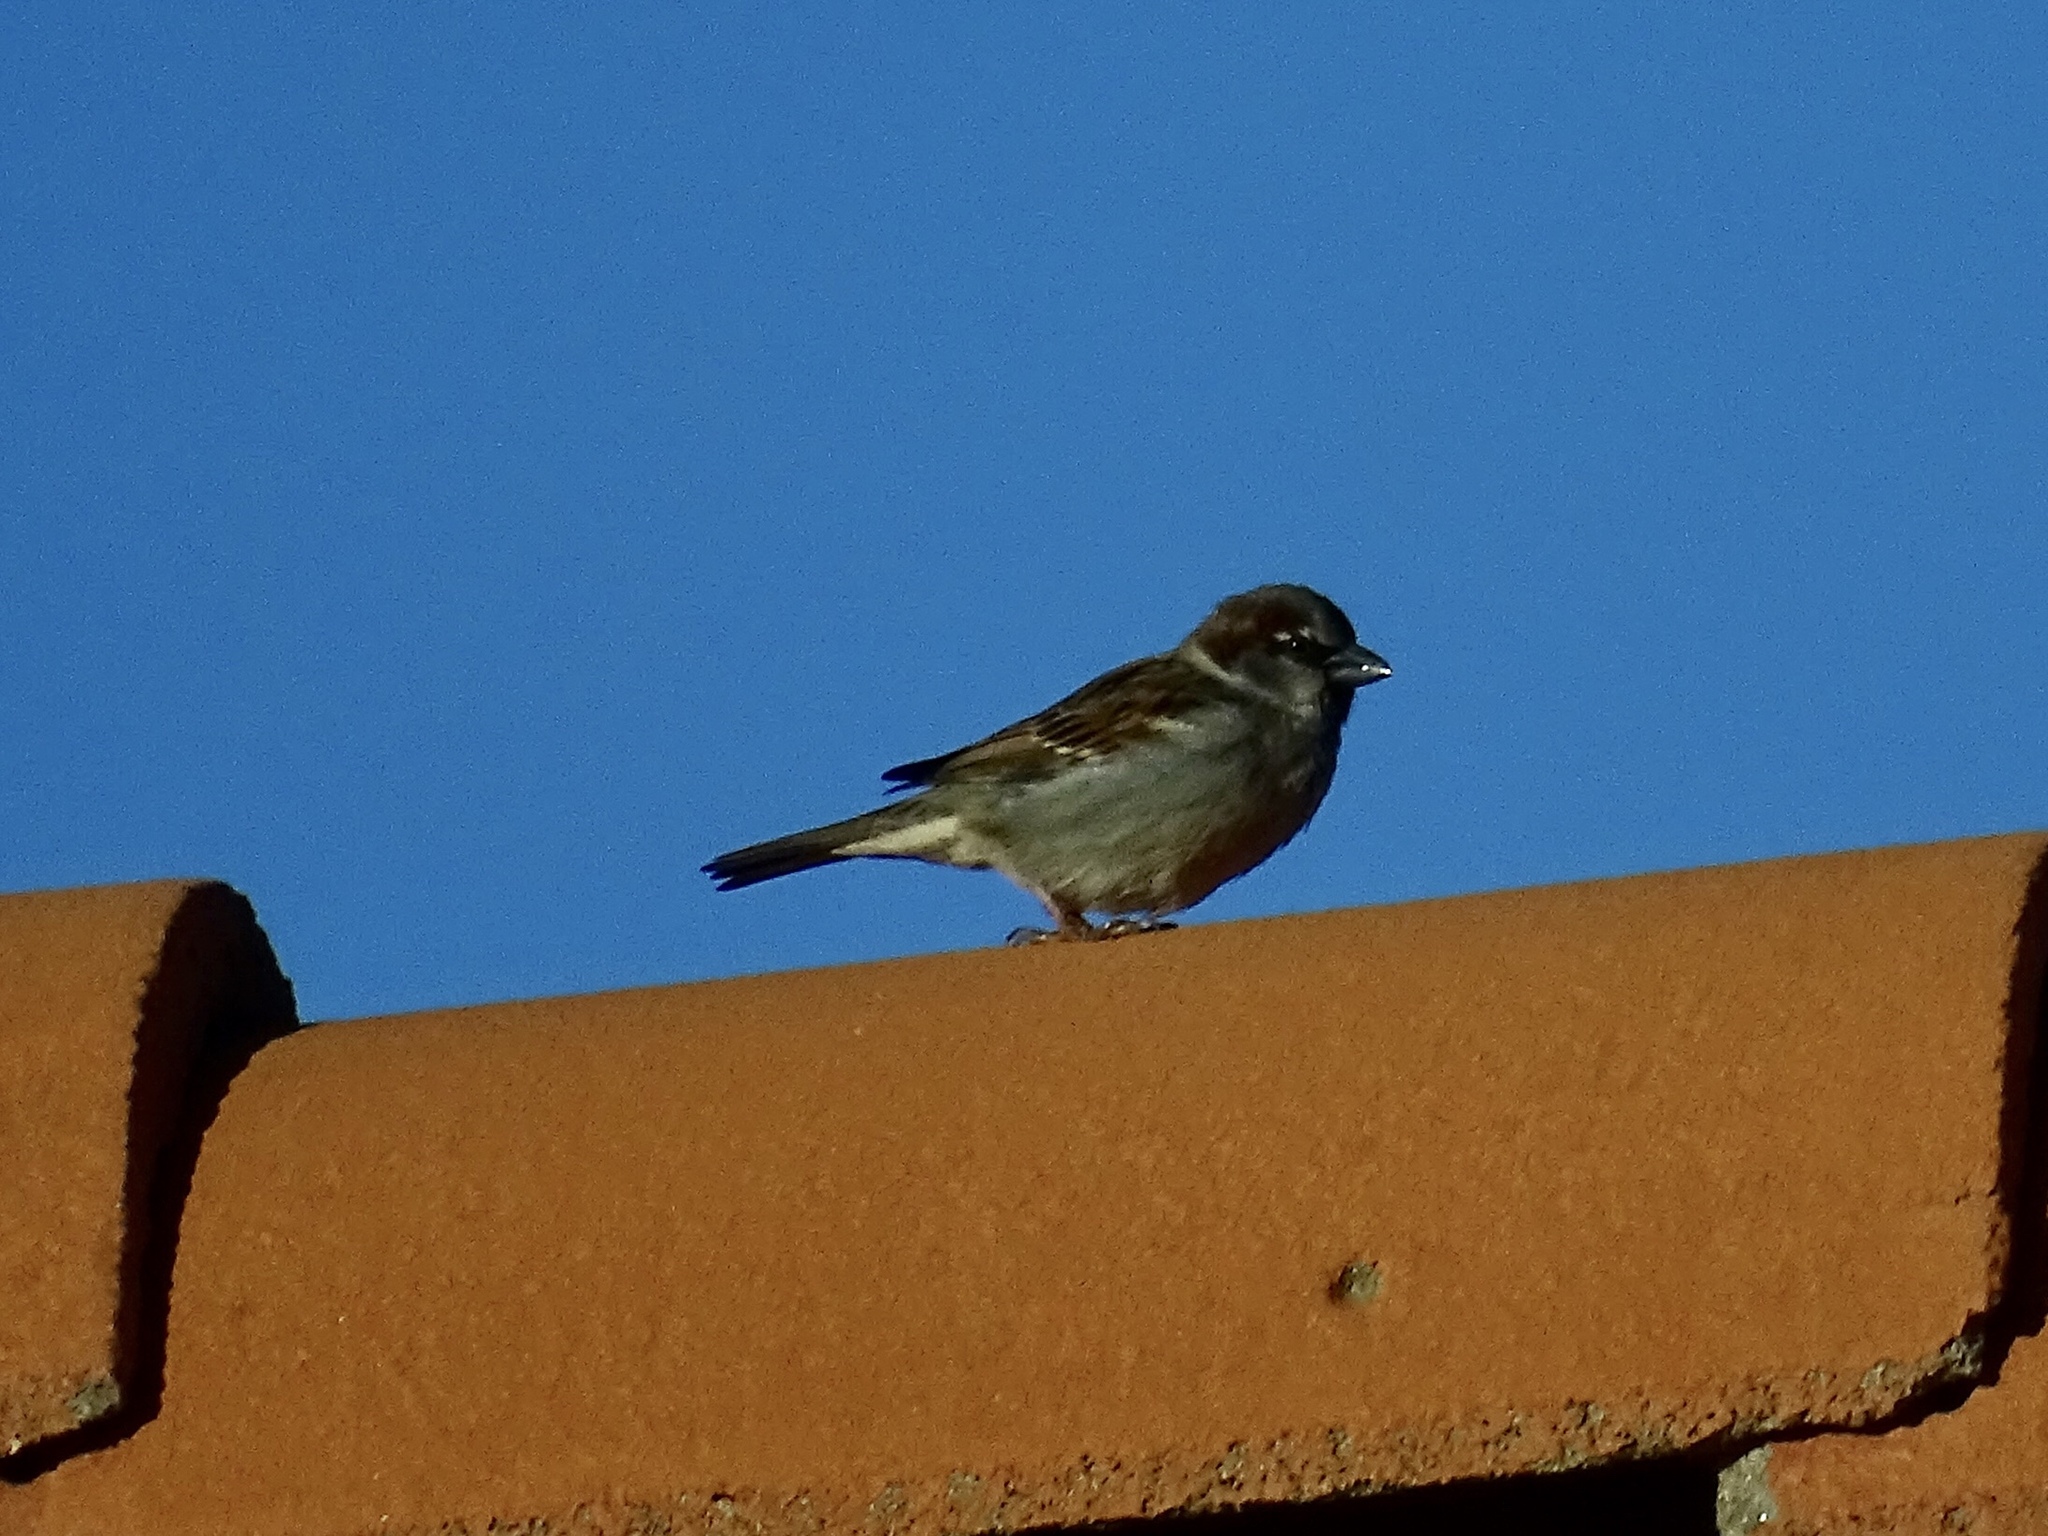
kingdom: Animalia
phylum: Chordata
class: Aves
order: Passeriformes
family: Passeridae
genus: Passer
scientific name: Passer domesticus
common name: House sparrow
